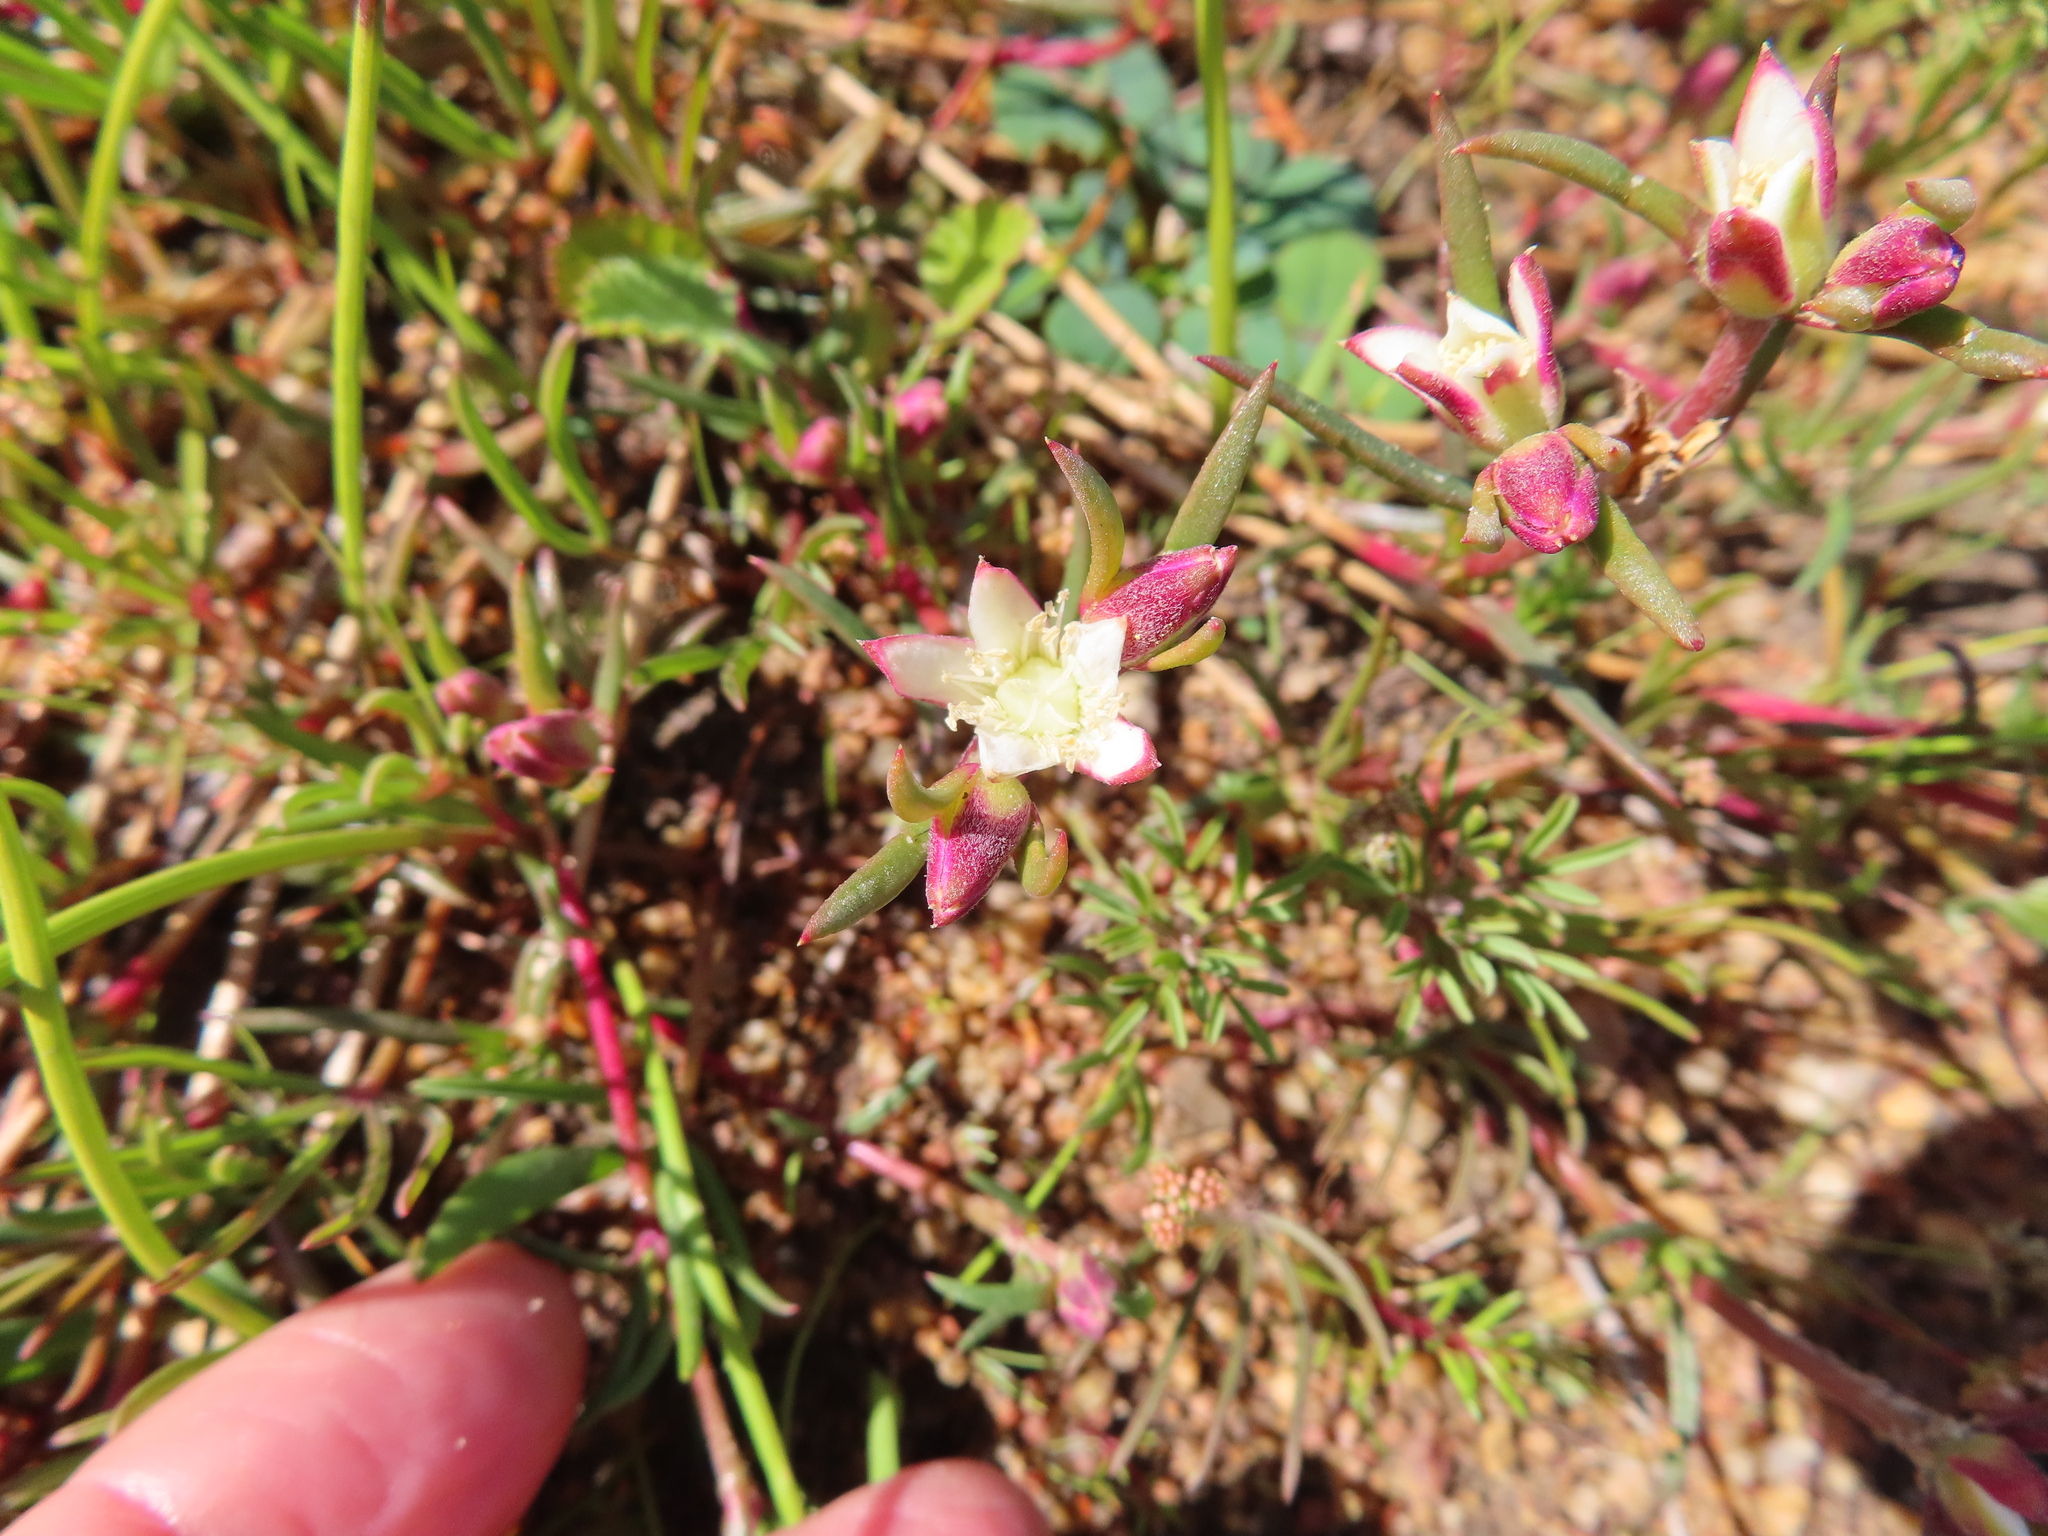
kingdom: Plantae
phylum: Tracheophyta
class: Magnoliopsida
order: Caryophyllales
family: Aizoaceae
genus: Aizoon
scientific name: Aizoon sarmentosum
